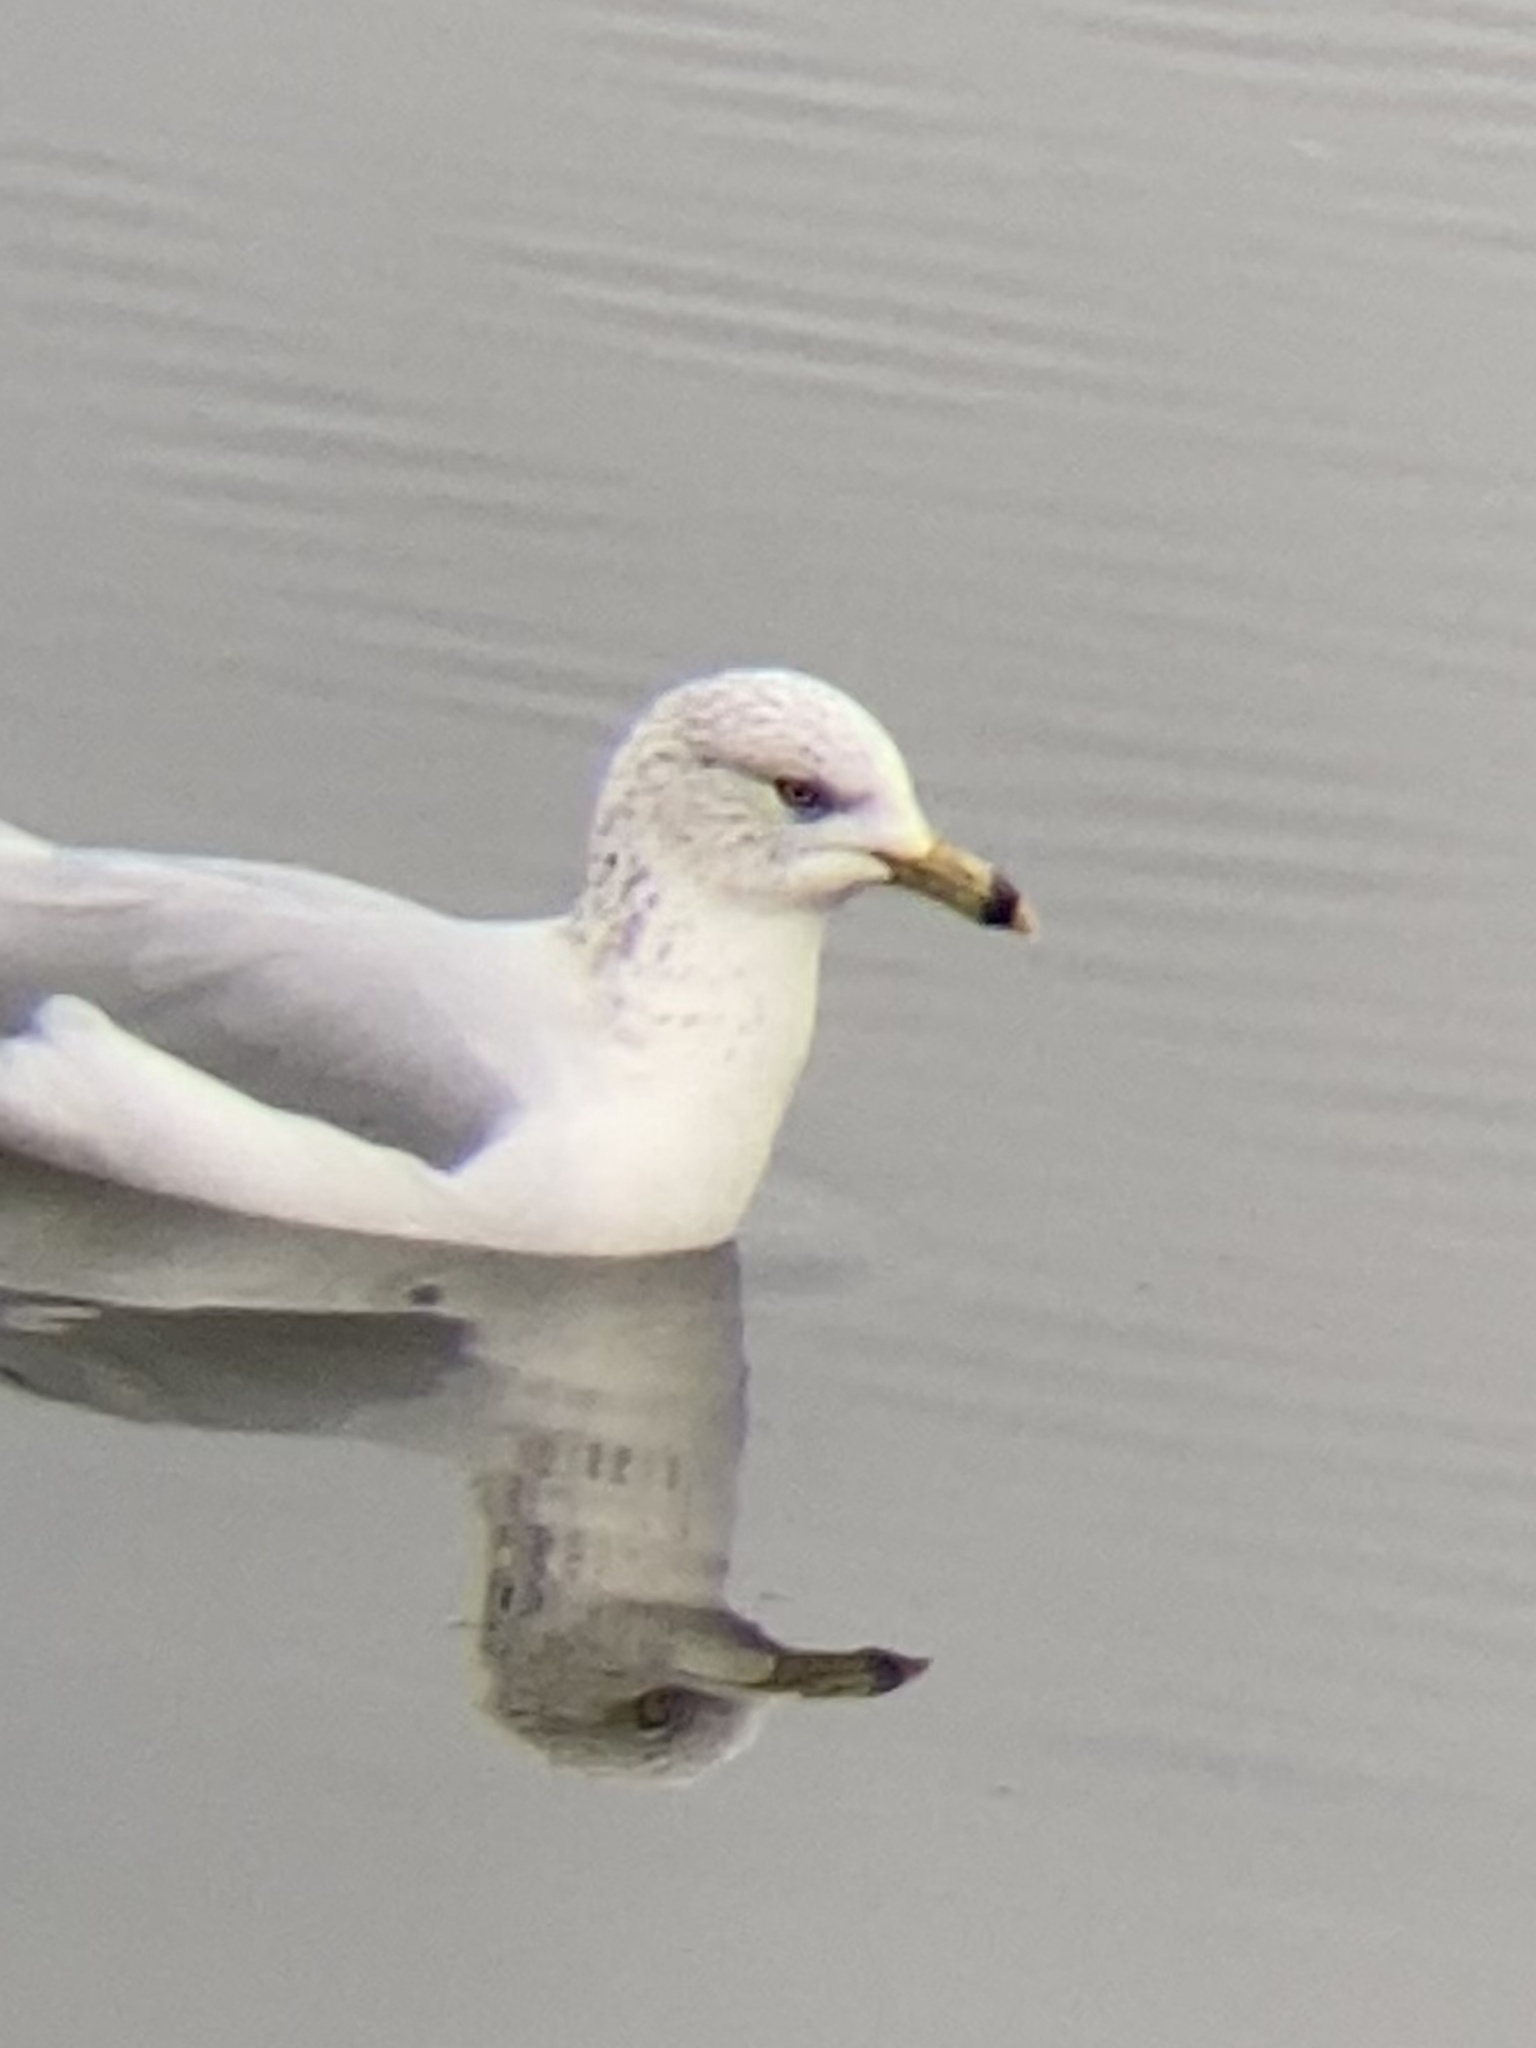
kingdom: Animalia
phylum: Chordata
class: Aves
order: Charadriiformes
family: Laridae
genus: Larus
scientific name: Larus delawarensis
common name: Ring-billed gull
